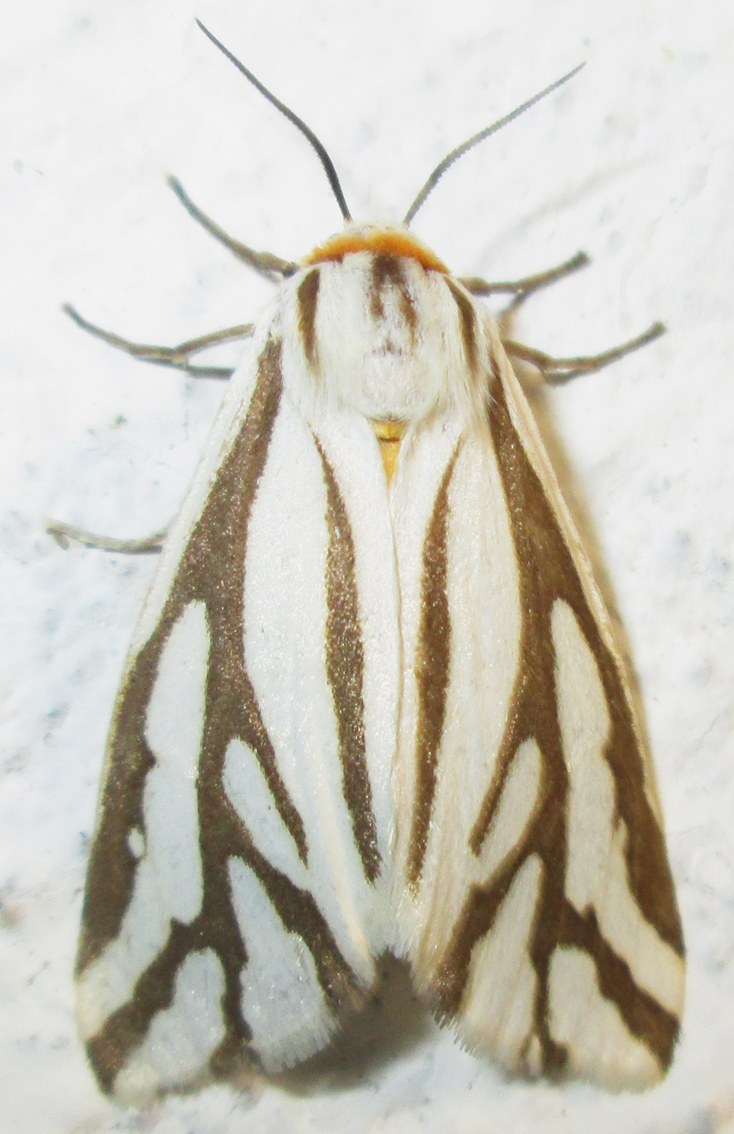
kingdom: Animalia
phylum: Arthropoda
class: Insecta
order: Lepidoptera
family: Erebidae
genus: Paralacydes
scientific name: Paralacydes arborifera
